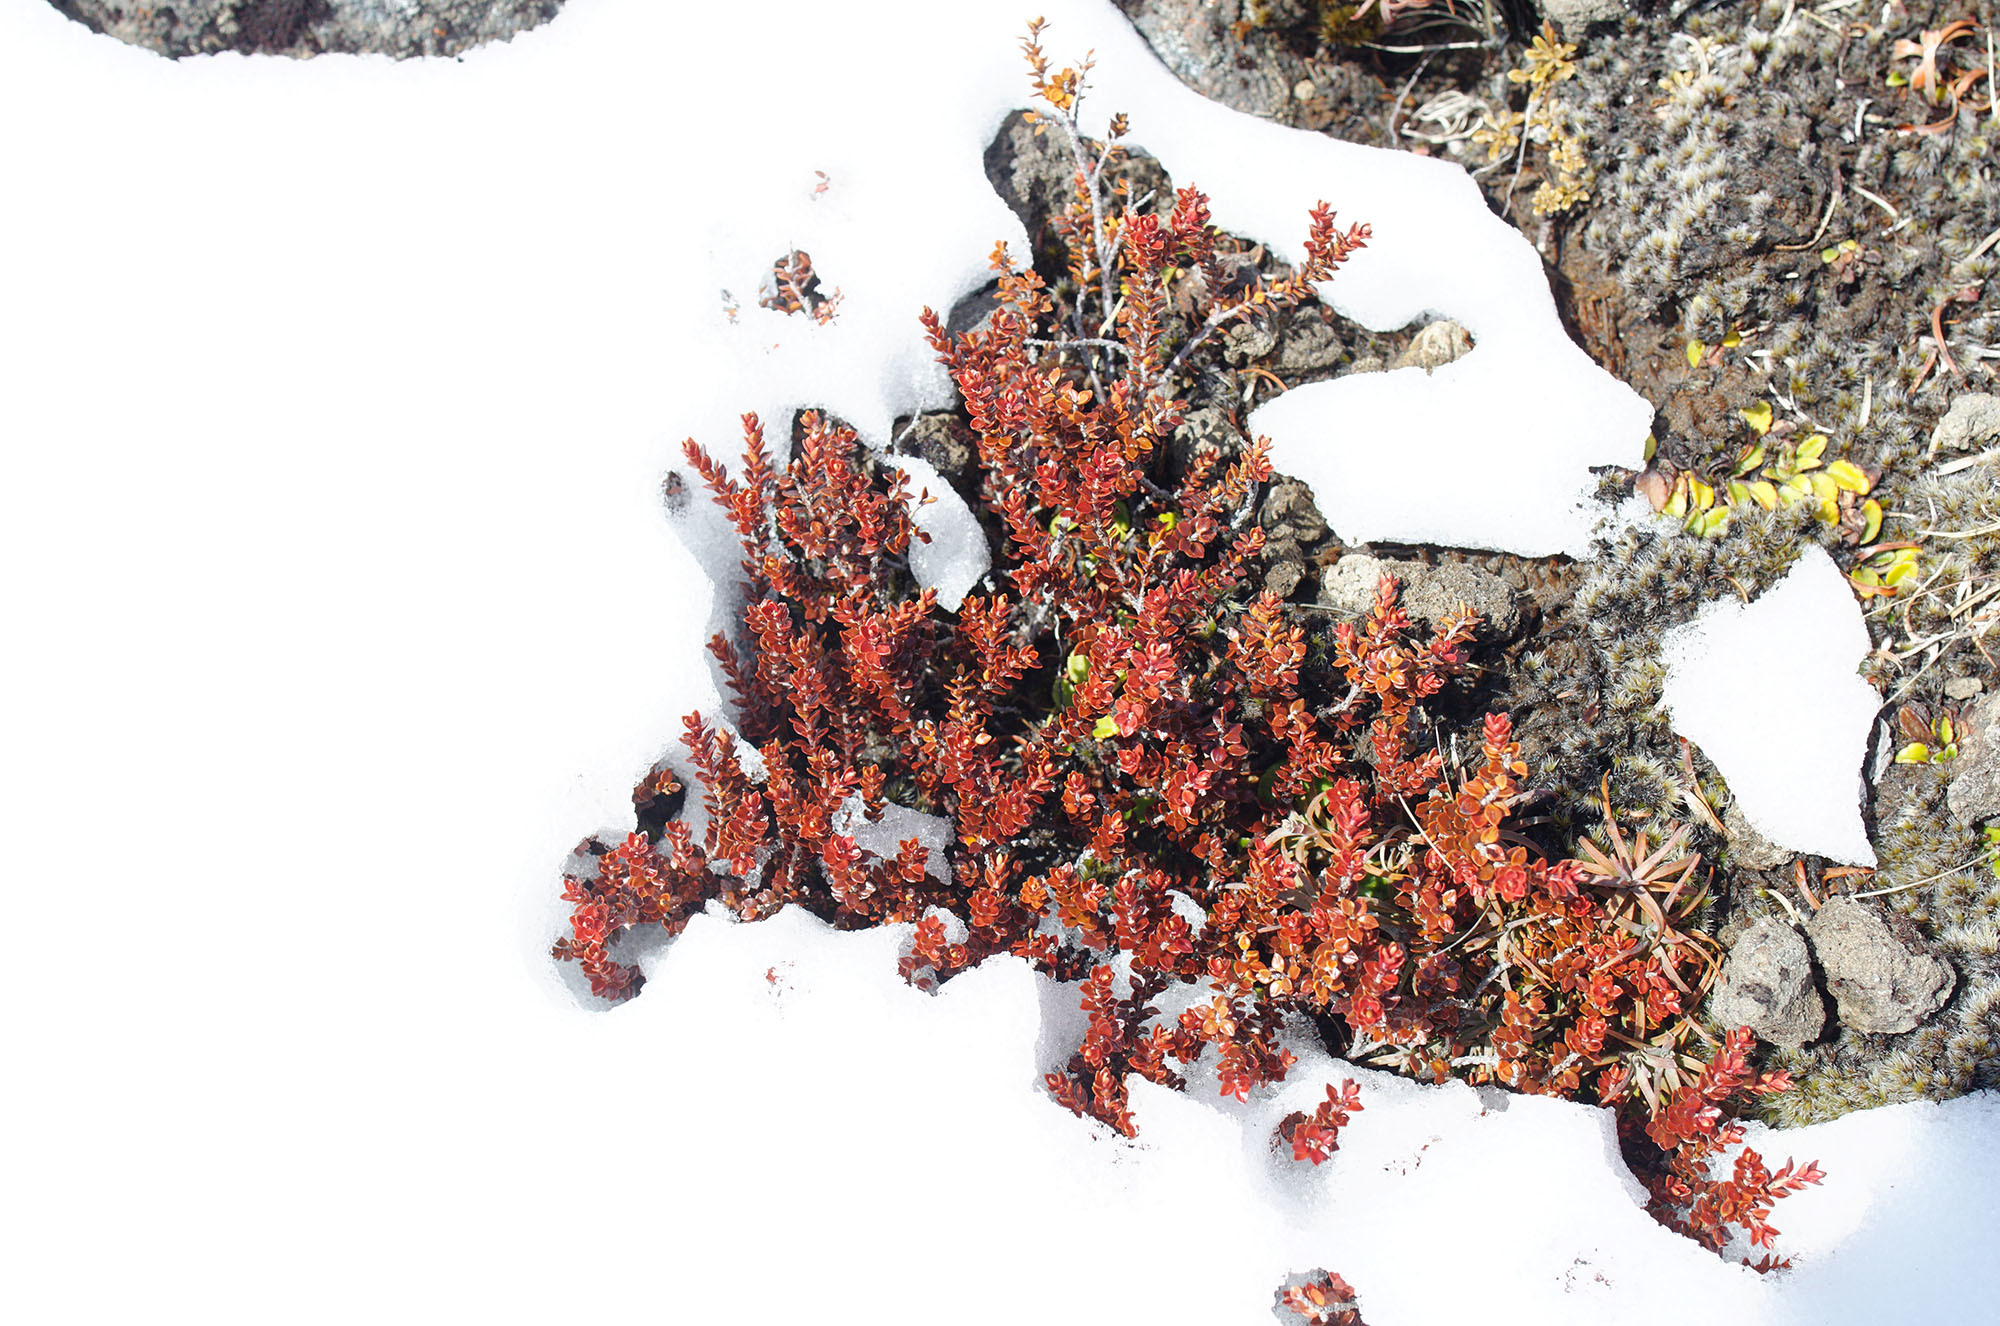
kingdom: Plantae
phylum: Tracheophyta
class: Magnoliopsida
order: Ericales
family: Ericaceae
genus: Epacris
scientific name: Epacris alpina
